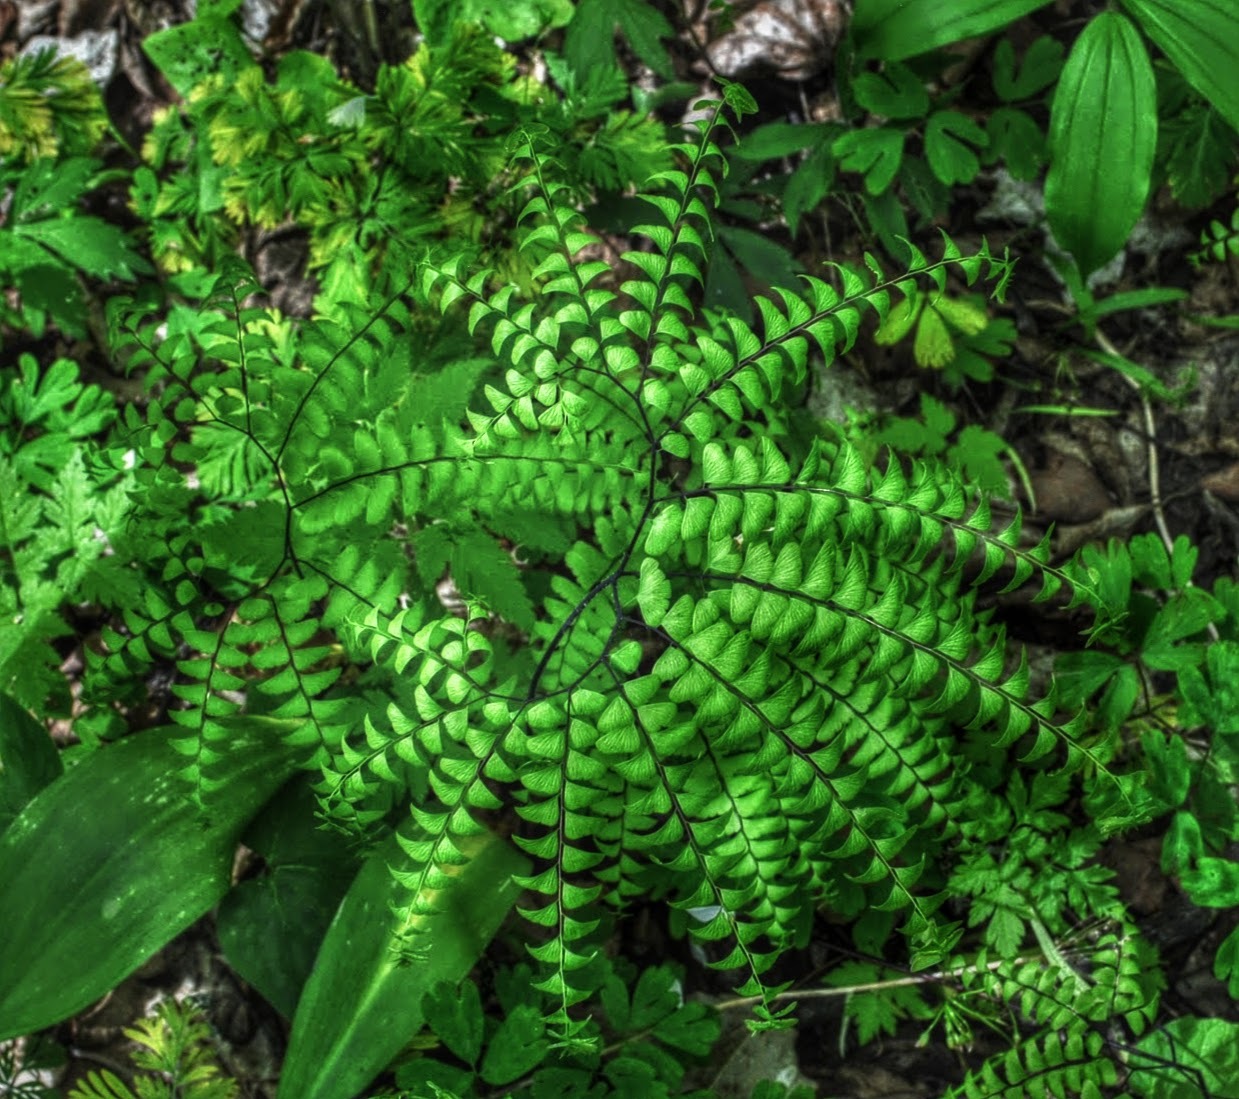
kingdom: Plantae
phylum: Tracheophyta
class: Polypodiopsida
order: Polypodiales
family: Pteridaceae
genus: Adiantum
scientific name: Adiantum pedatum
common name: Five-finger fern
